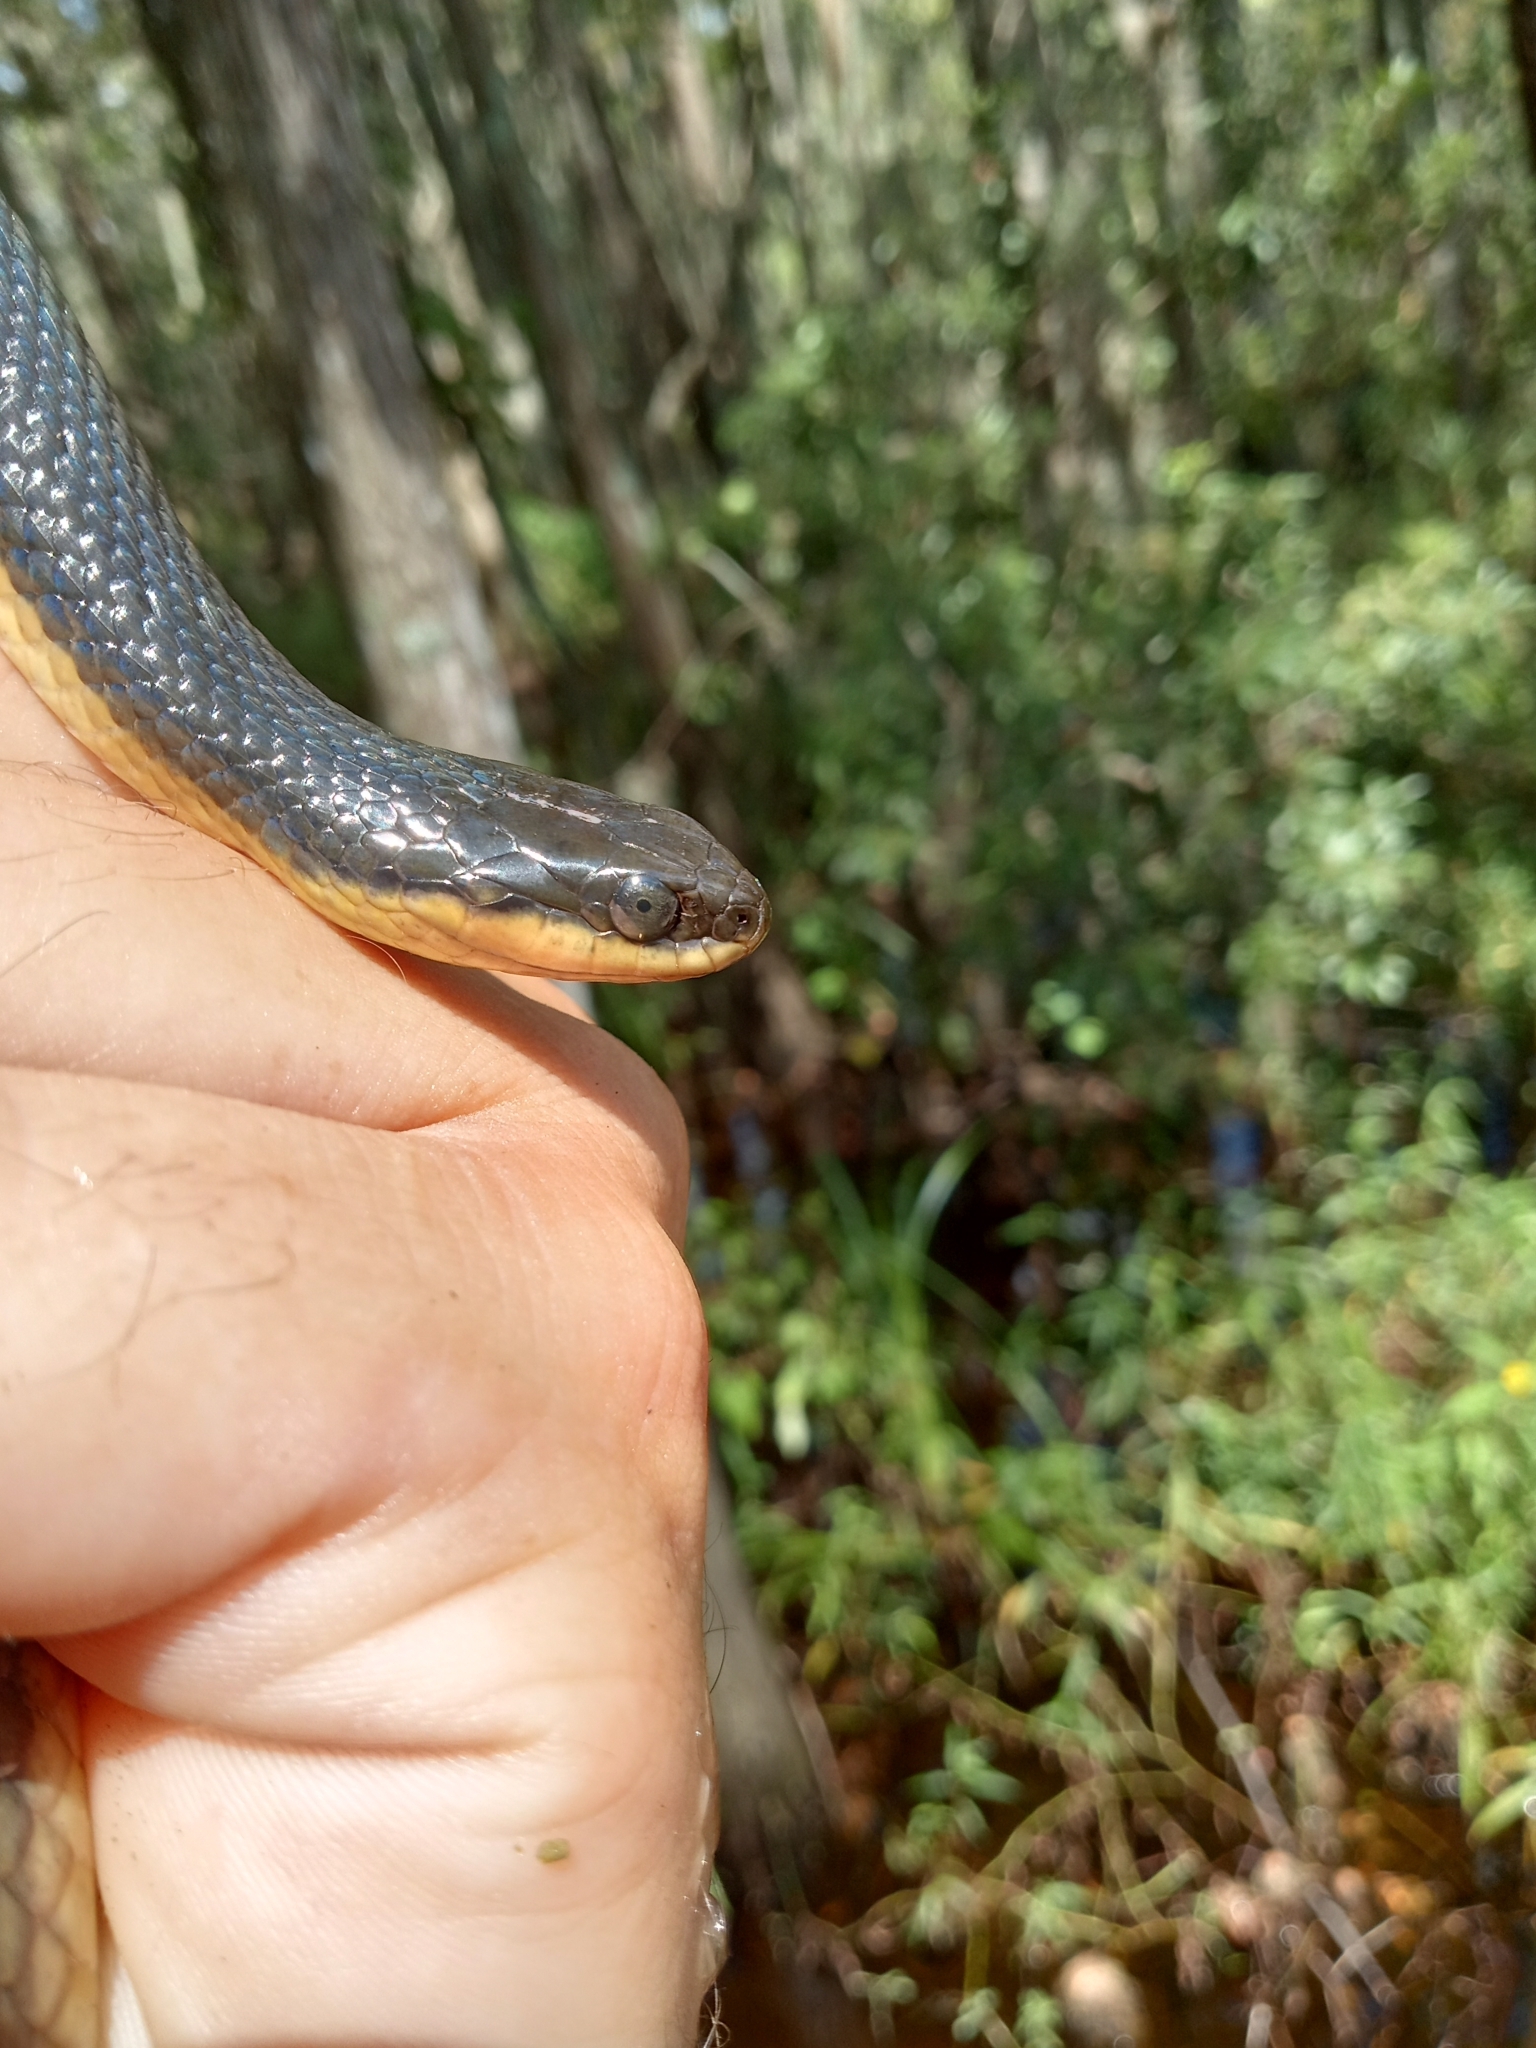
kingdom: Animalia
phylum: Chordata
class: Squamata
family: Colubridae
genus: Liodytes
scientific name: Liodytes rigida
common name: Crayfish snake
